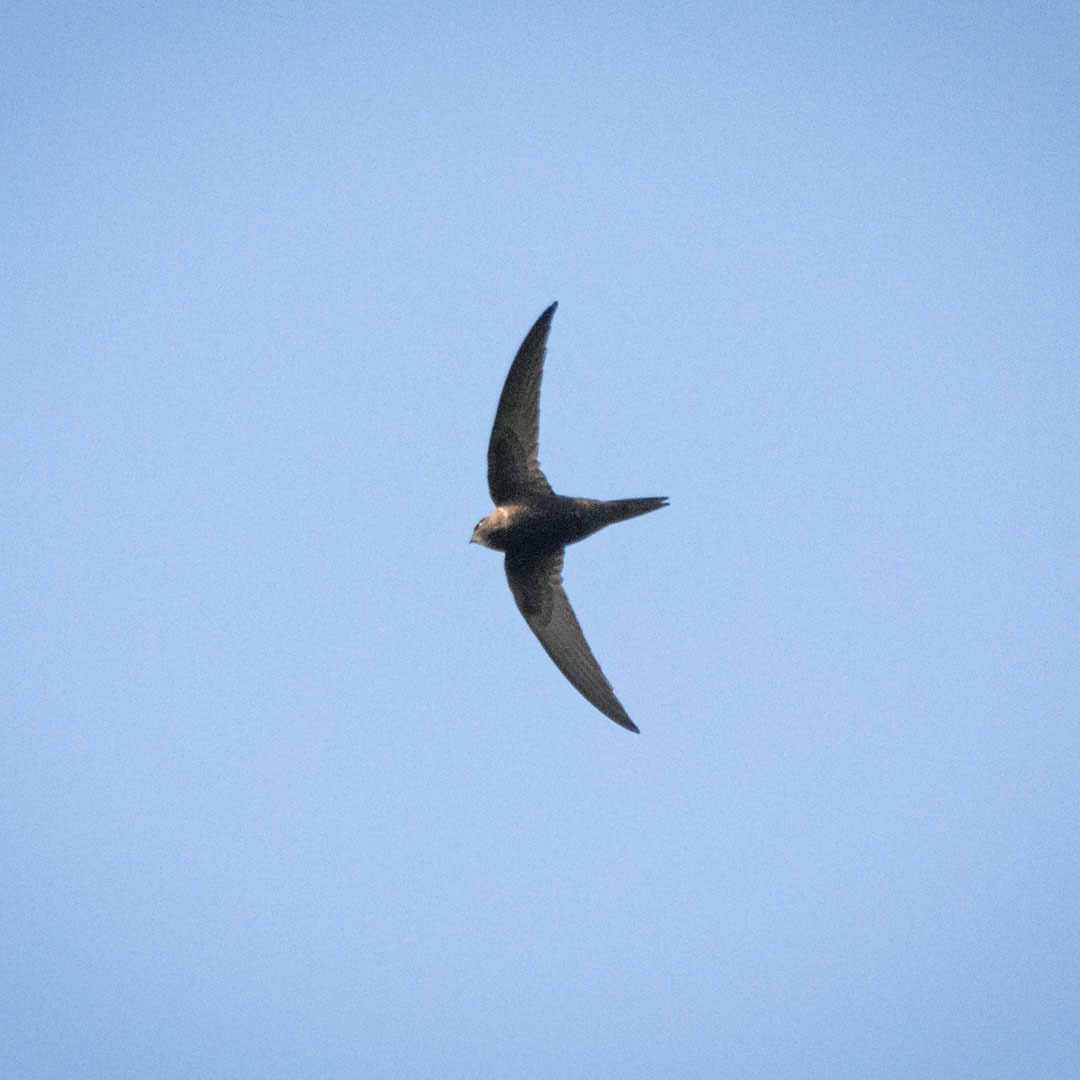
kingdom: Animalia
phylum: Chordata
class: Aves
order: Apodiformes
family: Apodidae
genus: Apus
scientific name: Apus apus
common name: Common swift
